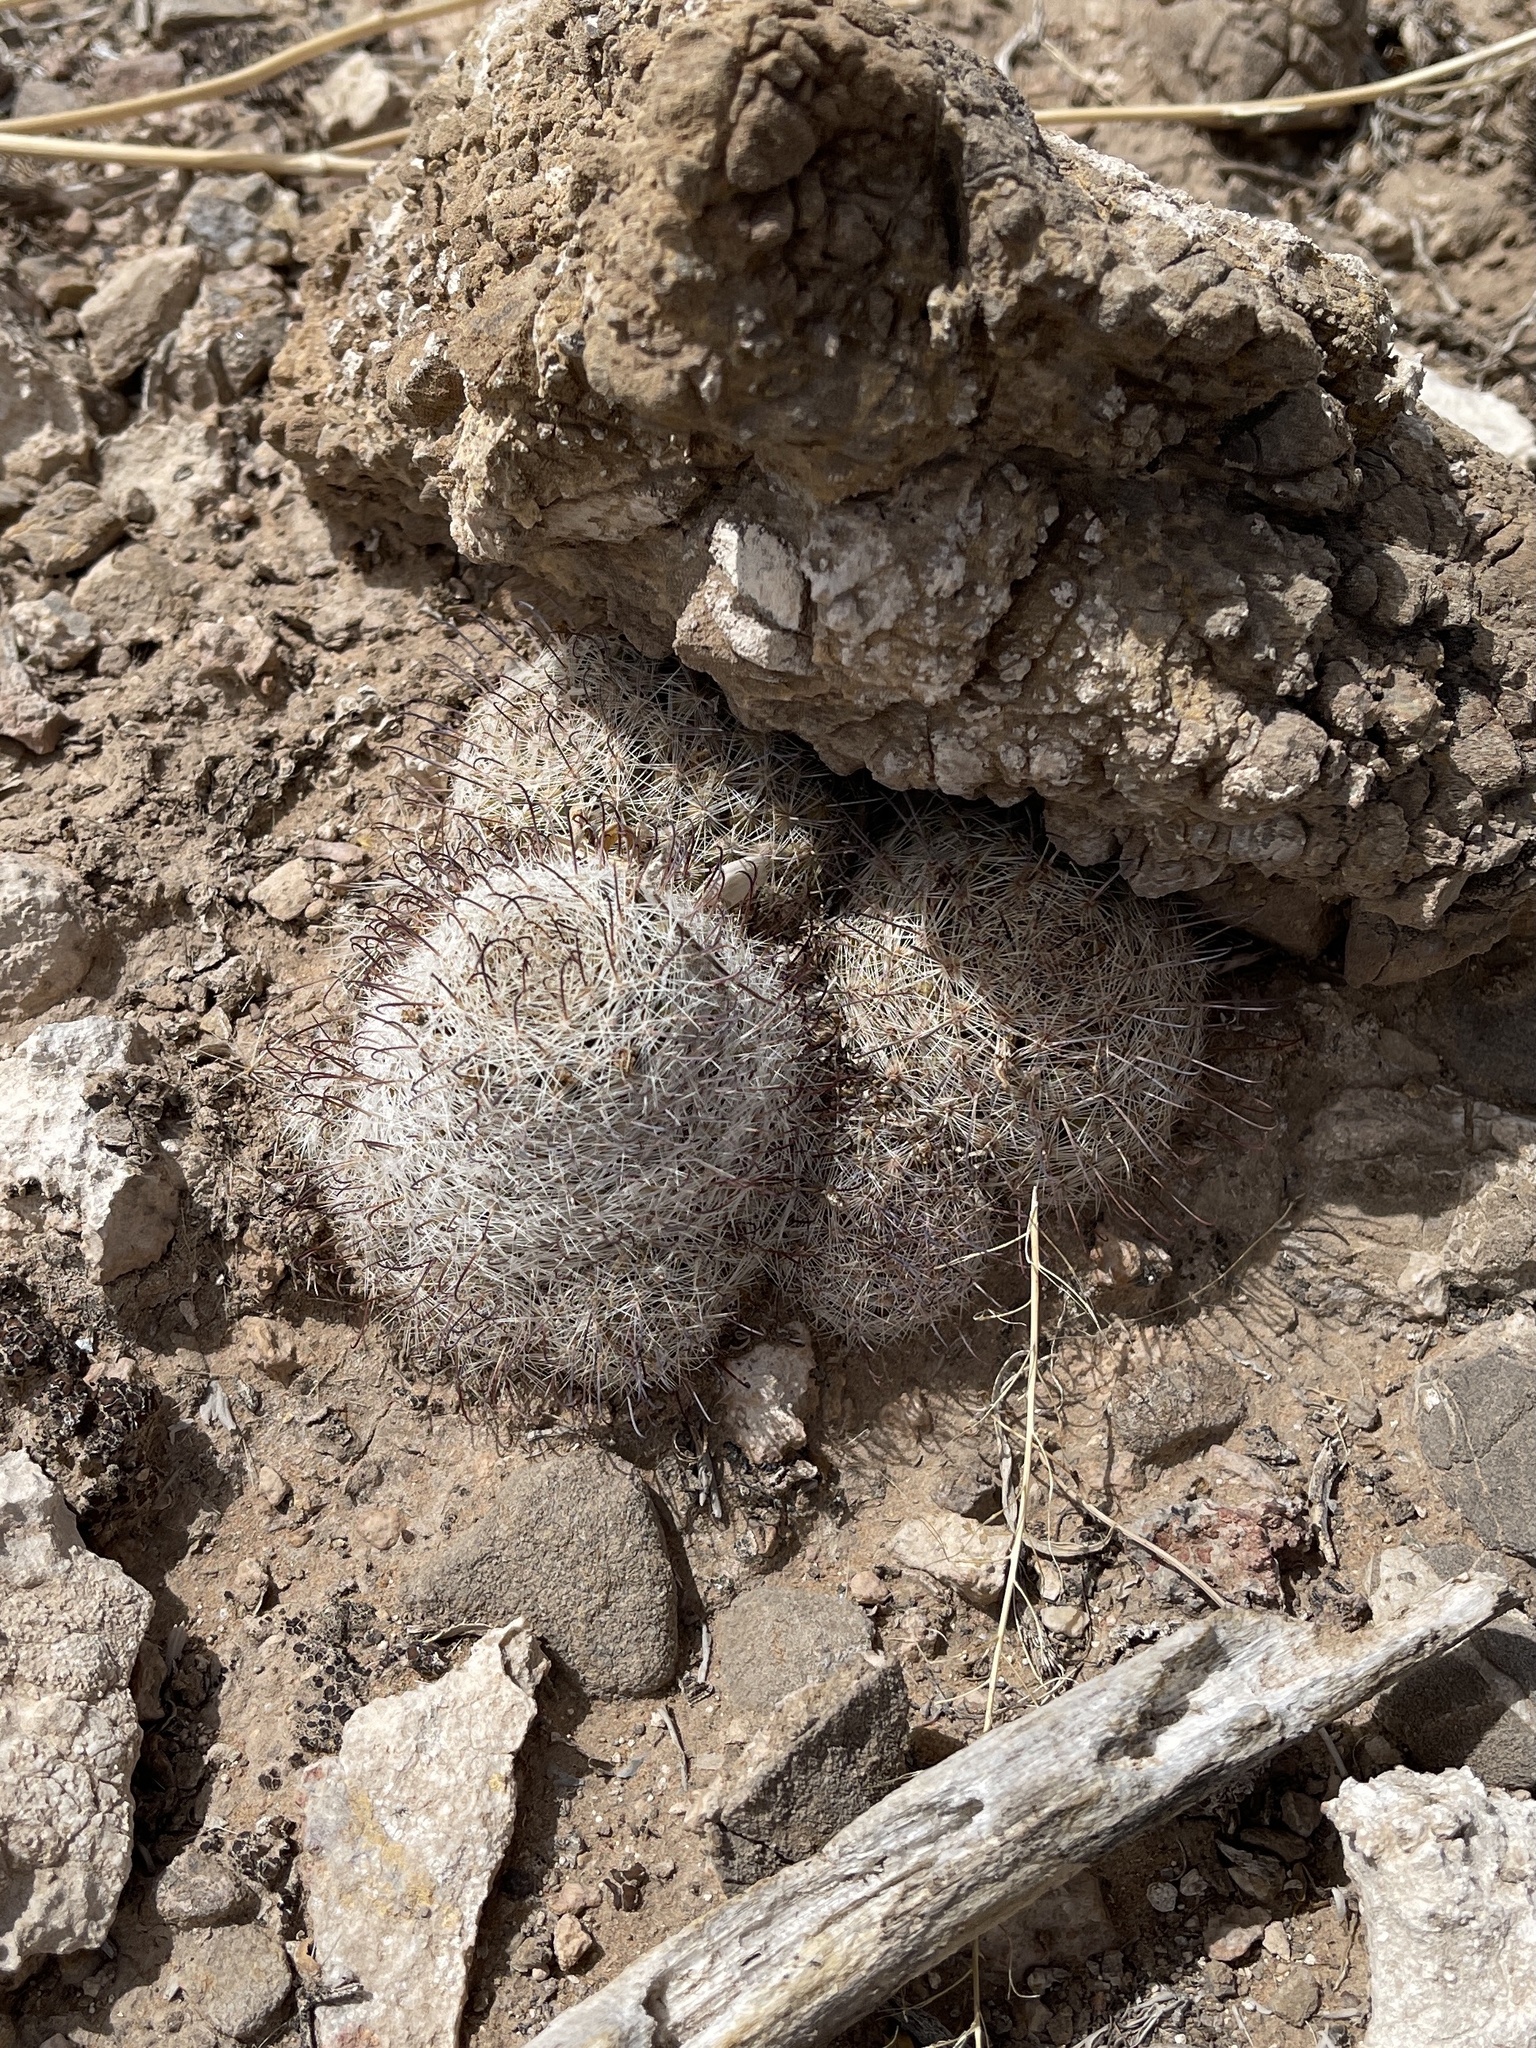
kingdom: Plantae
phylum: Tracheophyta
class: Magnoliopsida
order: Caryophyllales
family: Cactaceae
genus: Cochemiea
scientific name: Cochemiea grahamii
